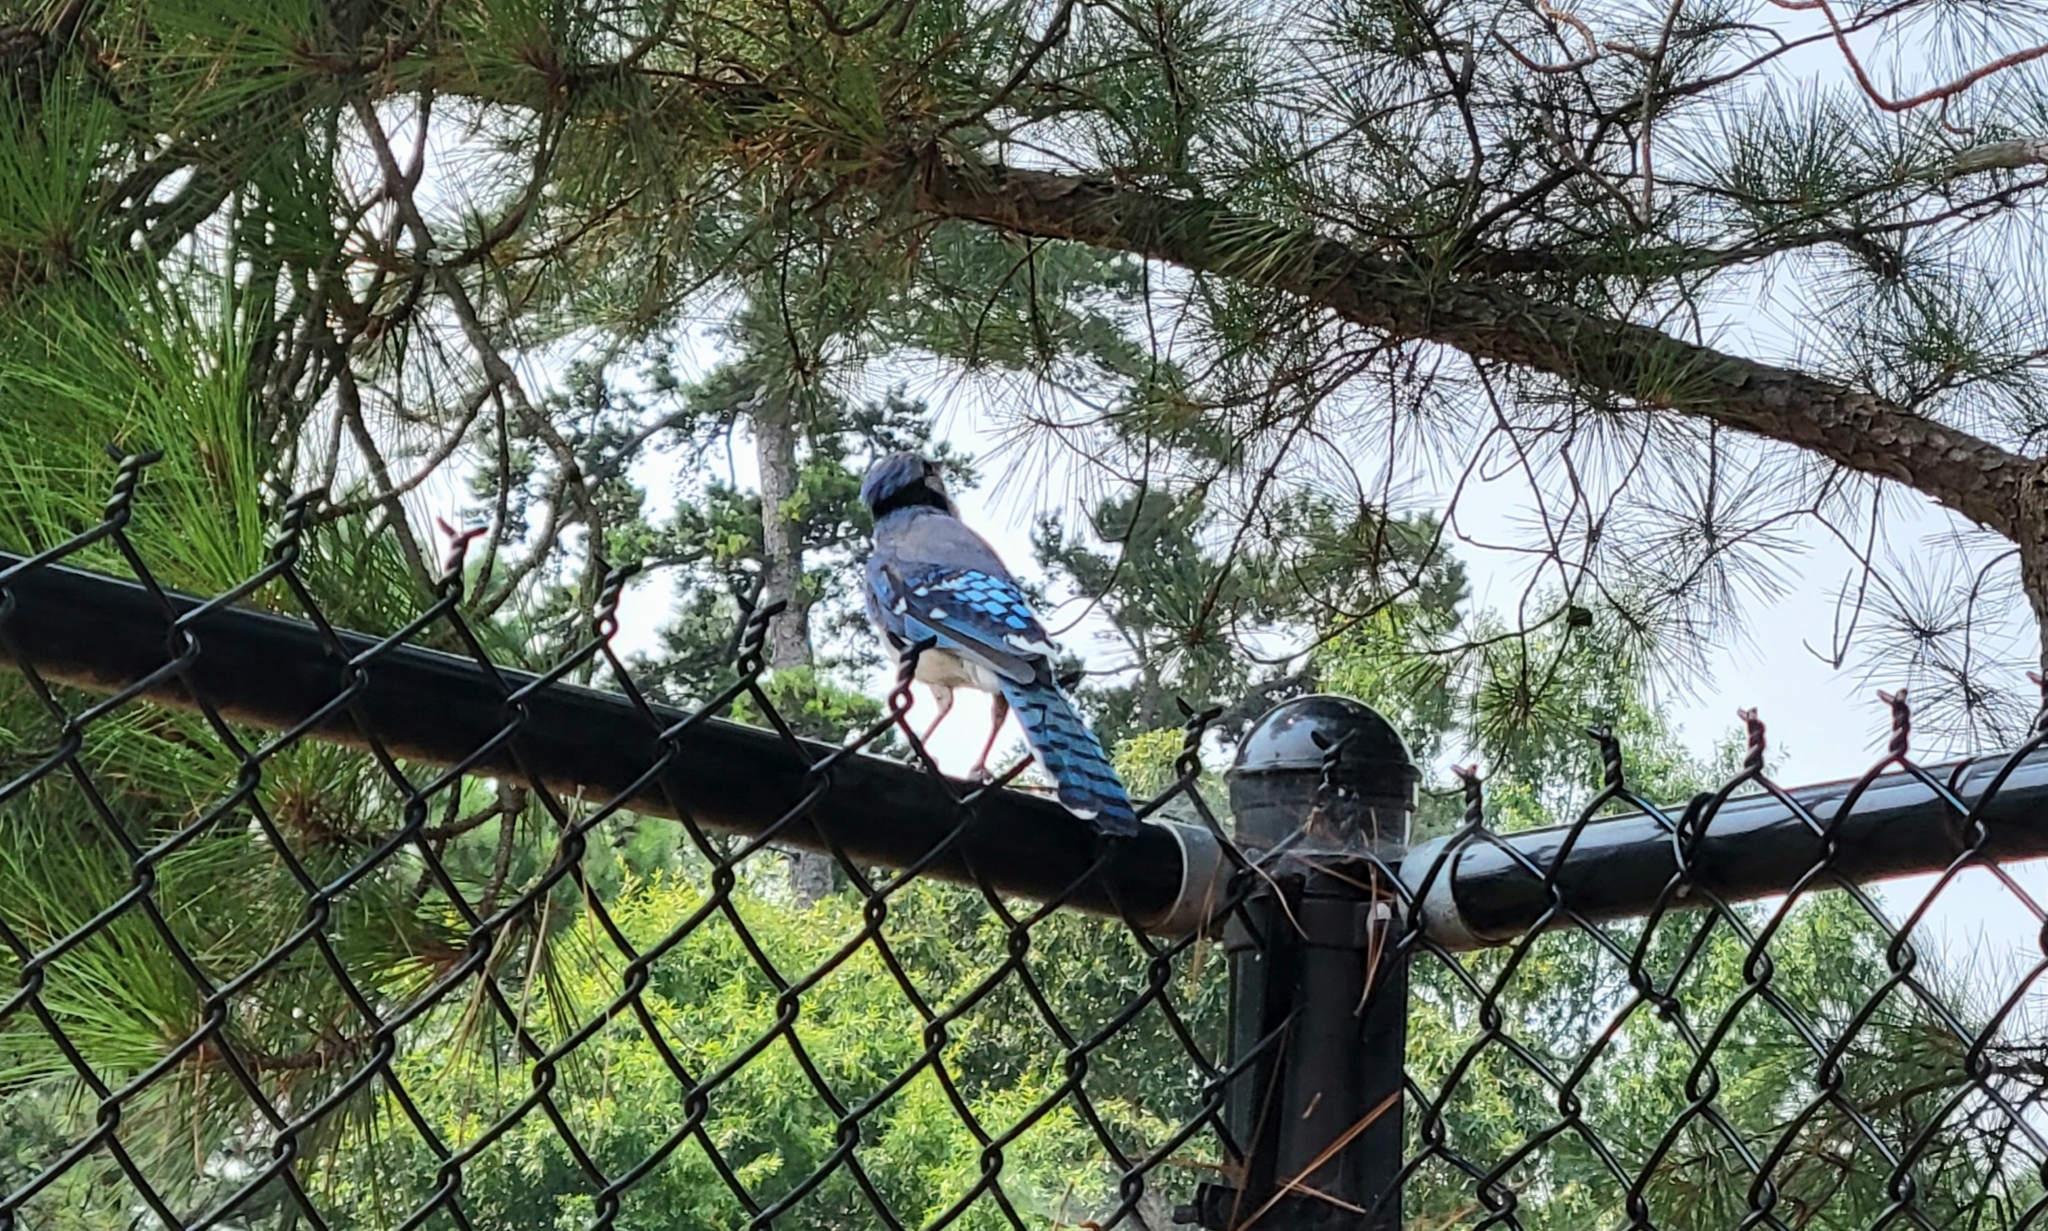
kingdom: Animalia
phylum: Chordata
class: Aves
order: Passeriformes
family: Corvidae
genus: Cyanocitta
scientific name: Cyanocitta cristata
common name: Blue jay
